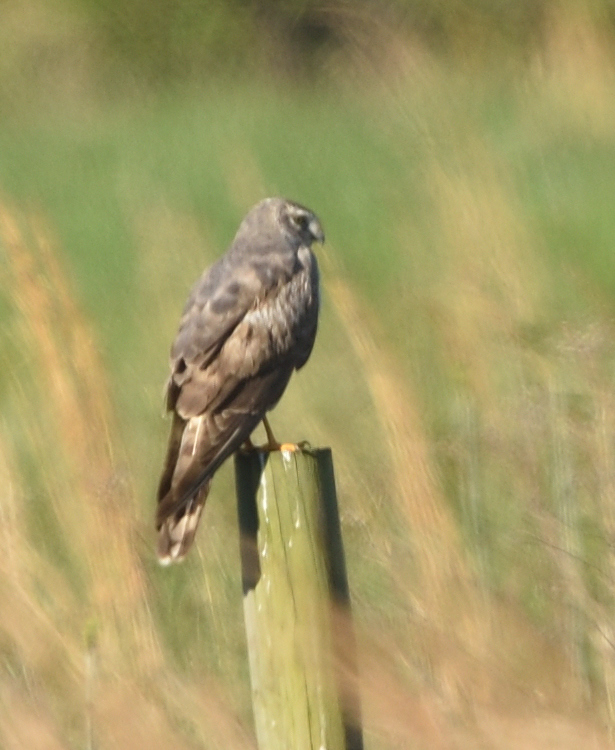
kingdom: Animalia
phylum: Chordata
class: Aves
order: Accipitriformes
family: Accipitridae
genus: Circus
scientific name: Circus cyaneus
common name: Hen harrier
